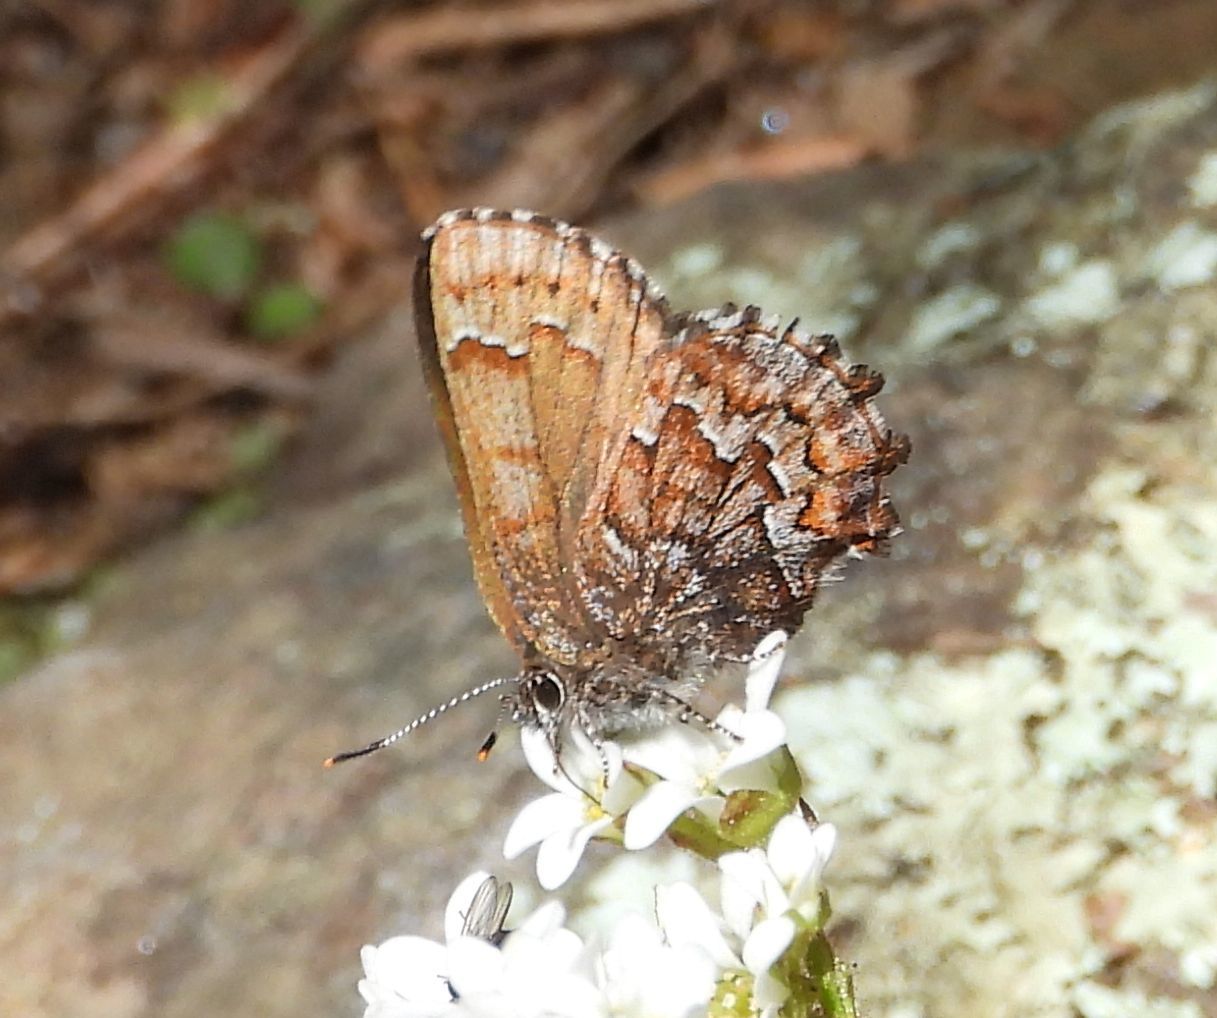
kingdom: Animalia
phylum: Arthropoda
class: Insecta
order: Lepidoptera
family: Lycaenidae
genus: Incisalia
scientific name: Incisalia niphon
